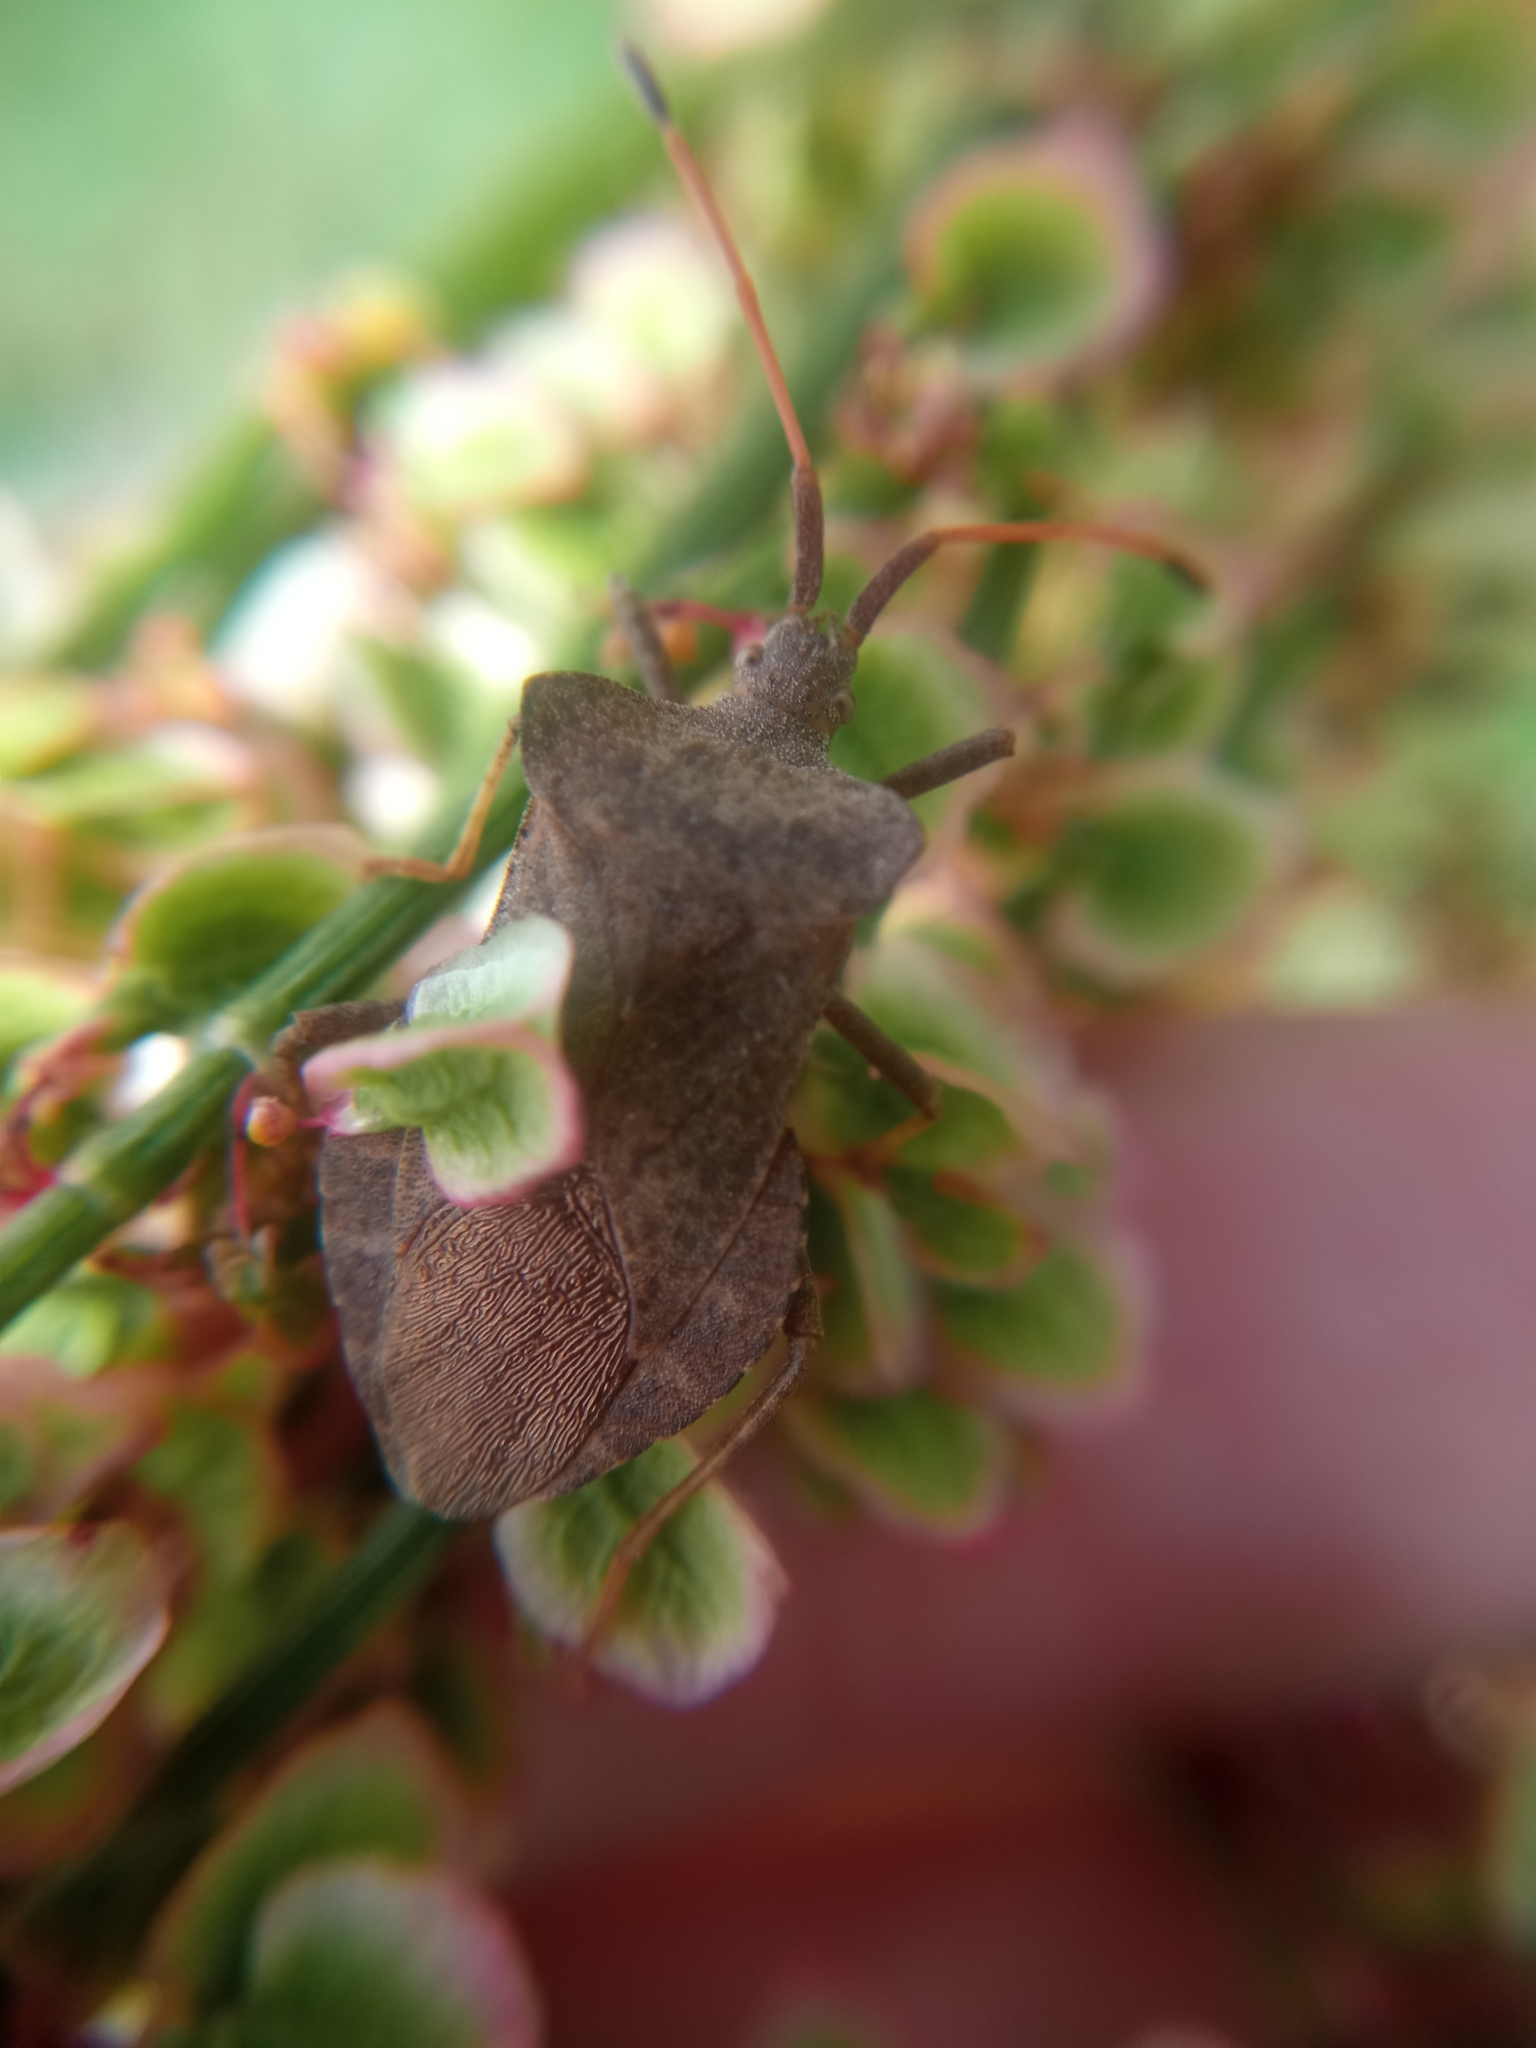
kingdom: Animalia
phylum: Arthropoda
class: Insecta
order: Hemiptera
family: Coreidae
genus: Coreus
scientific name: Coreus marginatus
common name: Dock bug
